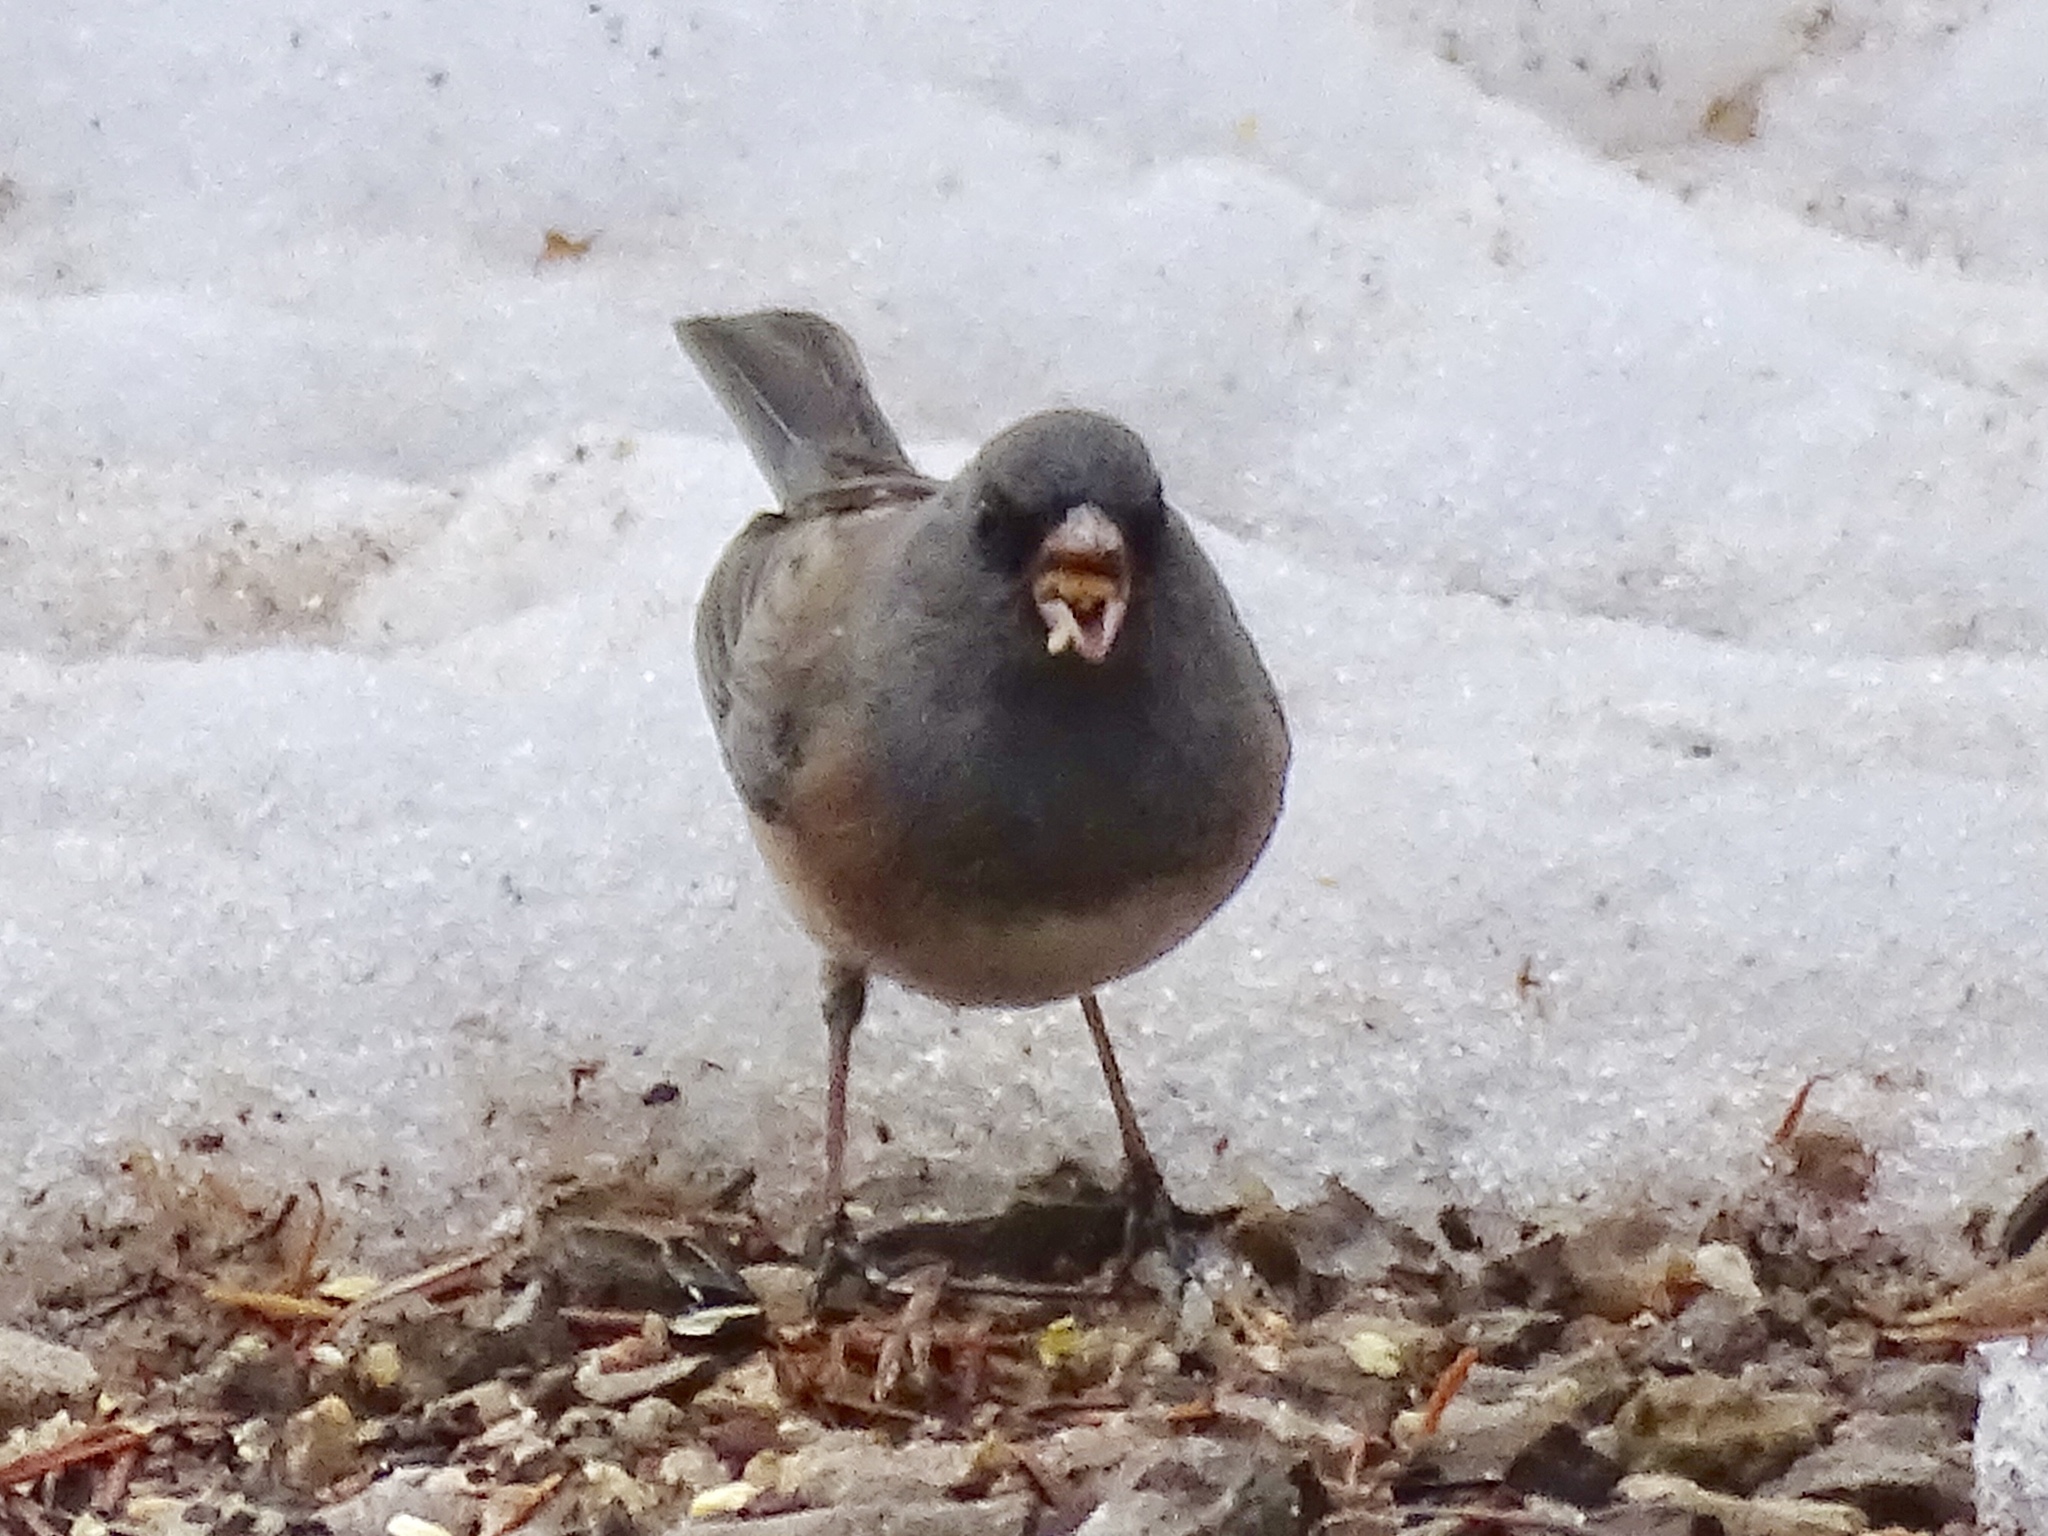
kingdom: Animalia
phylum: Chordata
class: Aves
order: Passeriformes
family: Passerellidae
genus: Junco
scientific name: Junco hyemalis
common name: Dark-eyed junco
